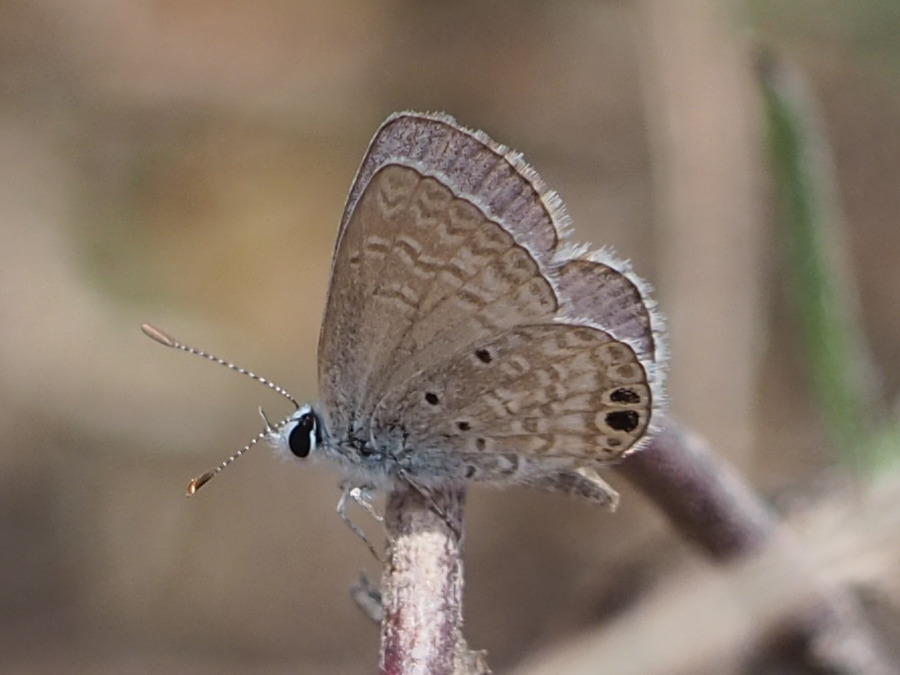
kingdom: Animalia
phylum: Arthropoda
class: Insecta
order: Lepidoptera
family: Lycaenidae
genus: Hemiargus
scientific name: Hemiargus ceraunus
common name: Ceraunus blue
